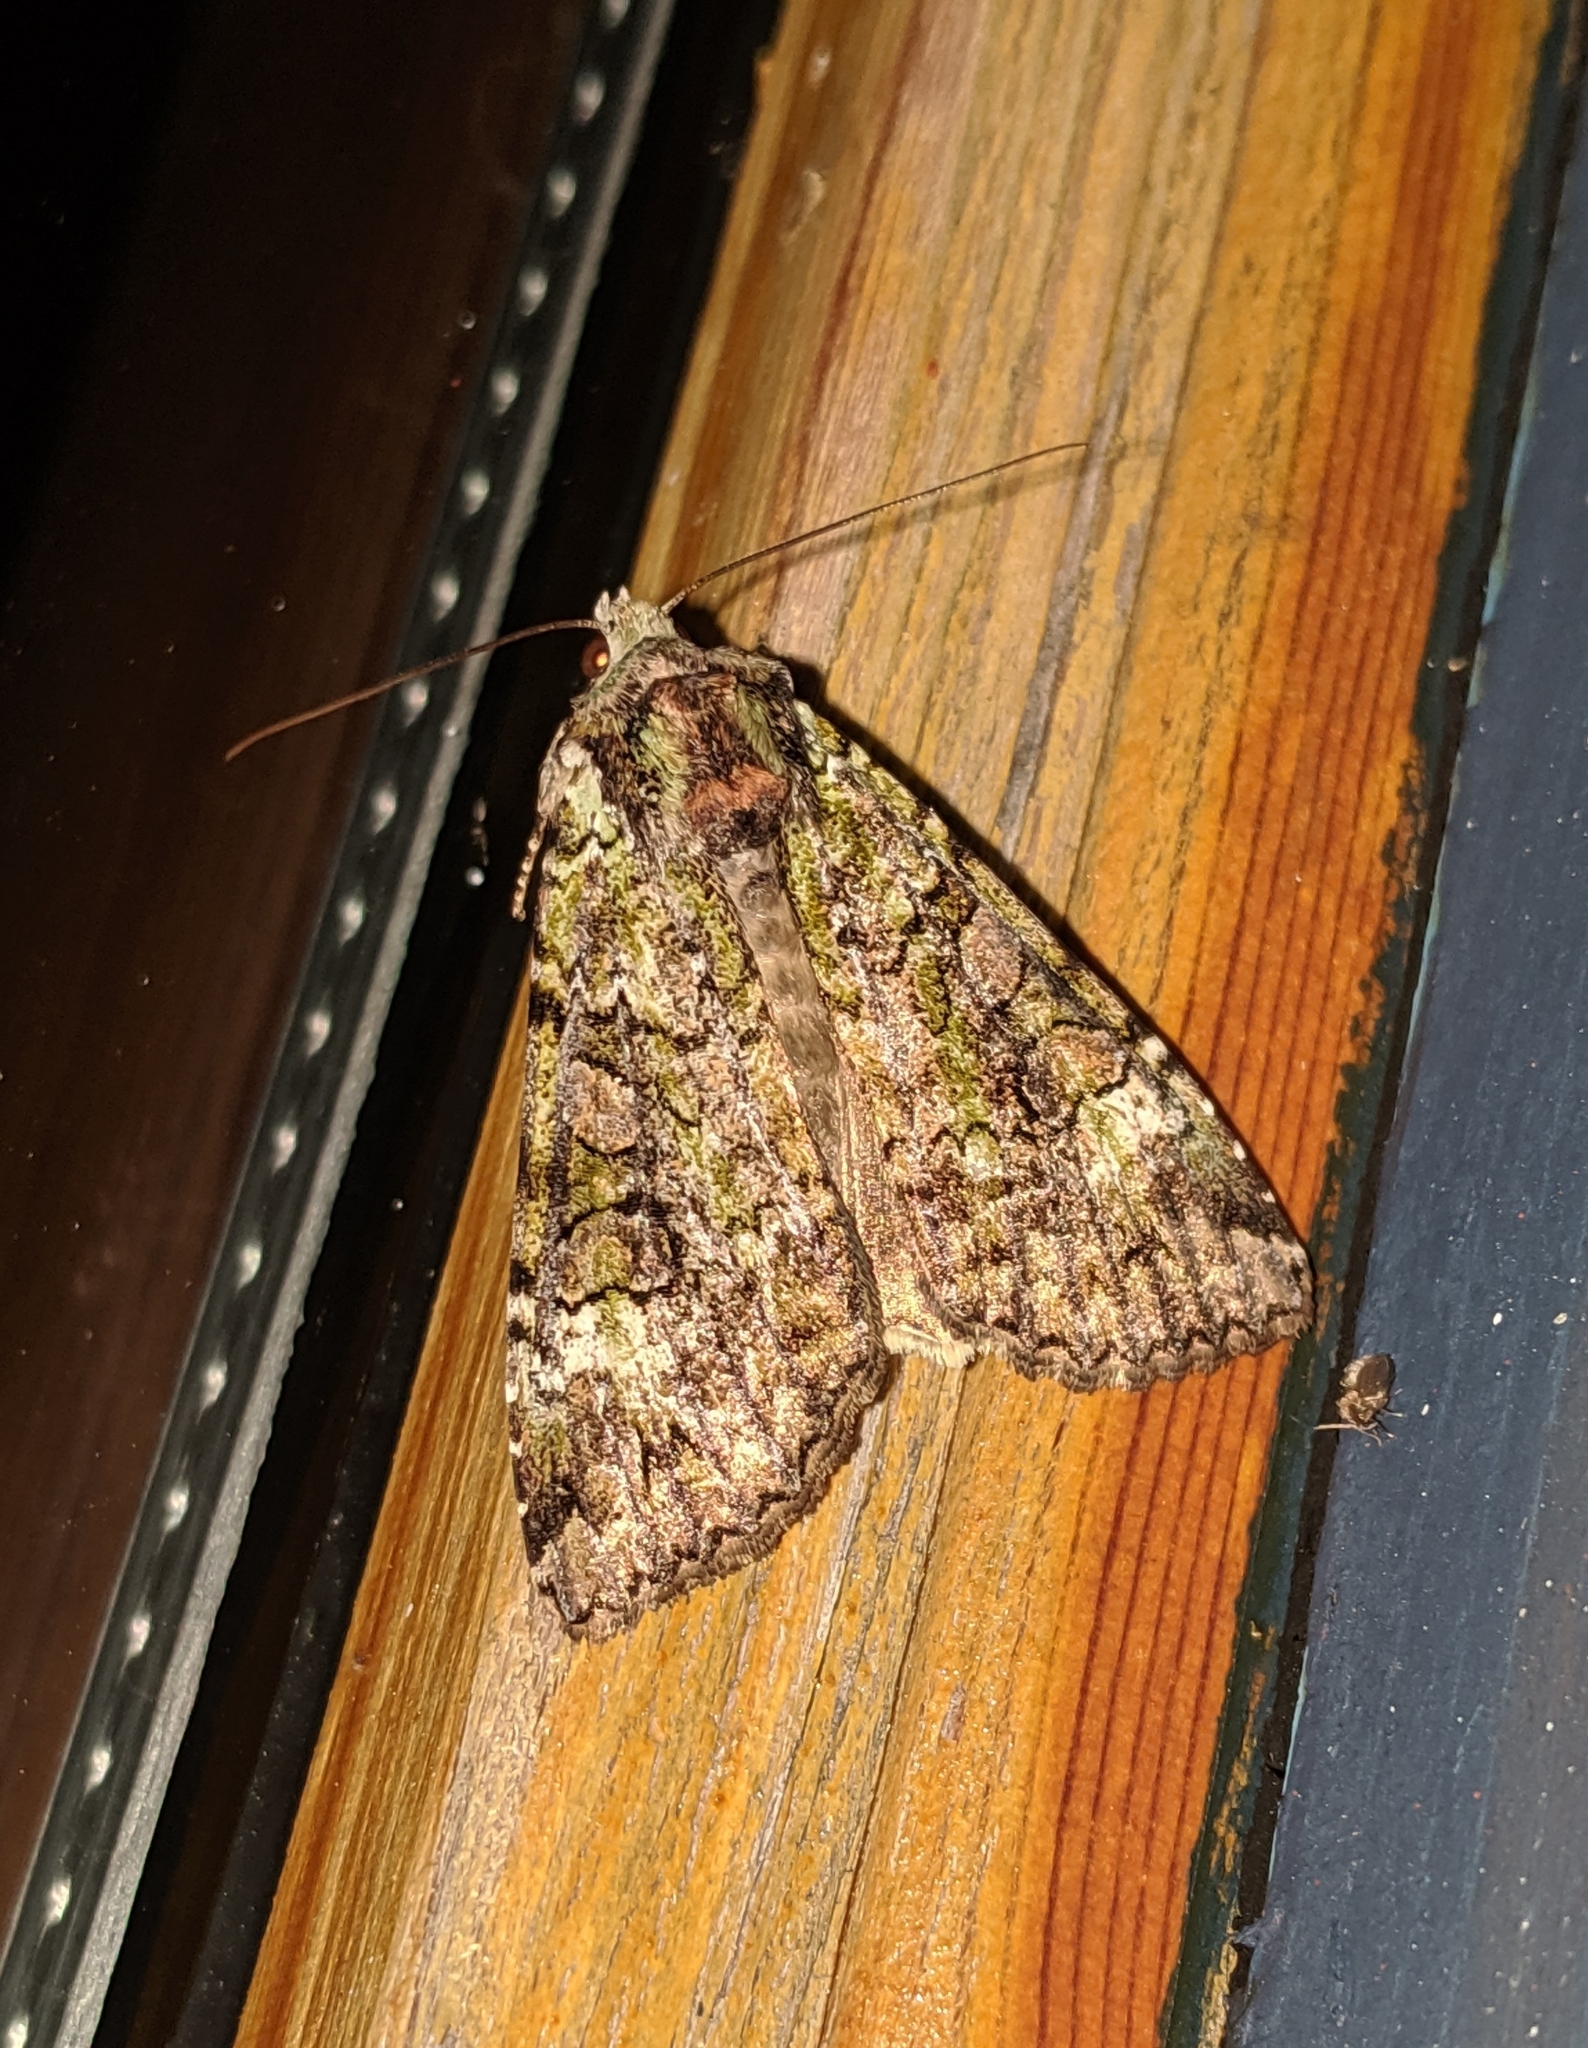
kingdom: Animalia
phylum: Arthropoda
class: Insecta
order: Lepidoptera
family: Noctuidae
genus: Anaplectoides
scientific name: Anaplectoides prasina
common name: Green arches
